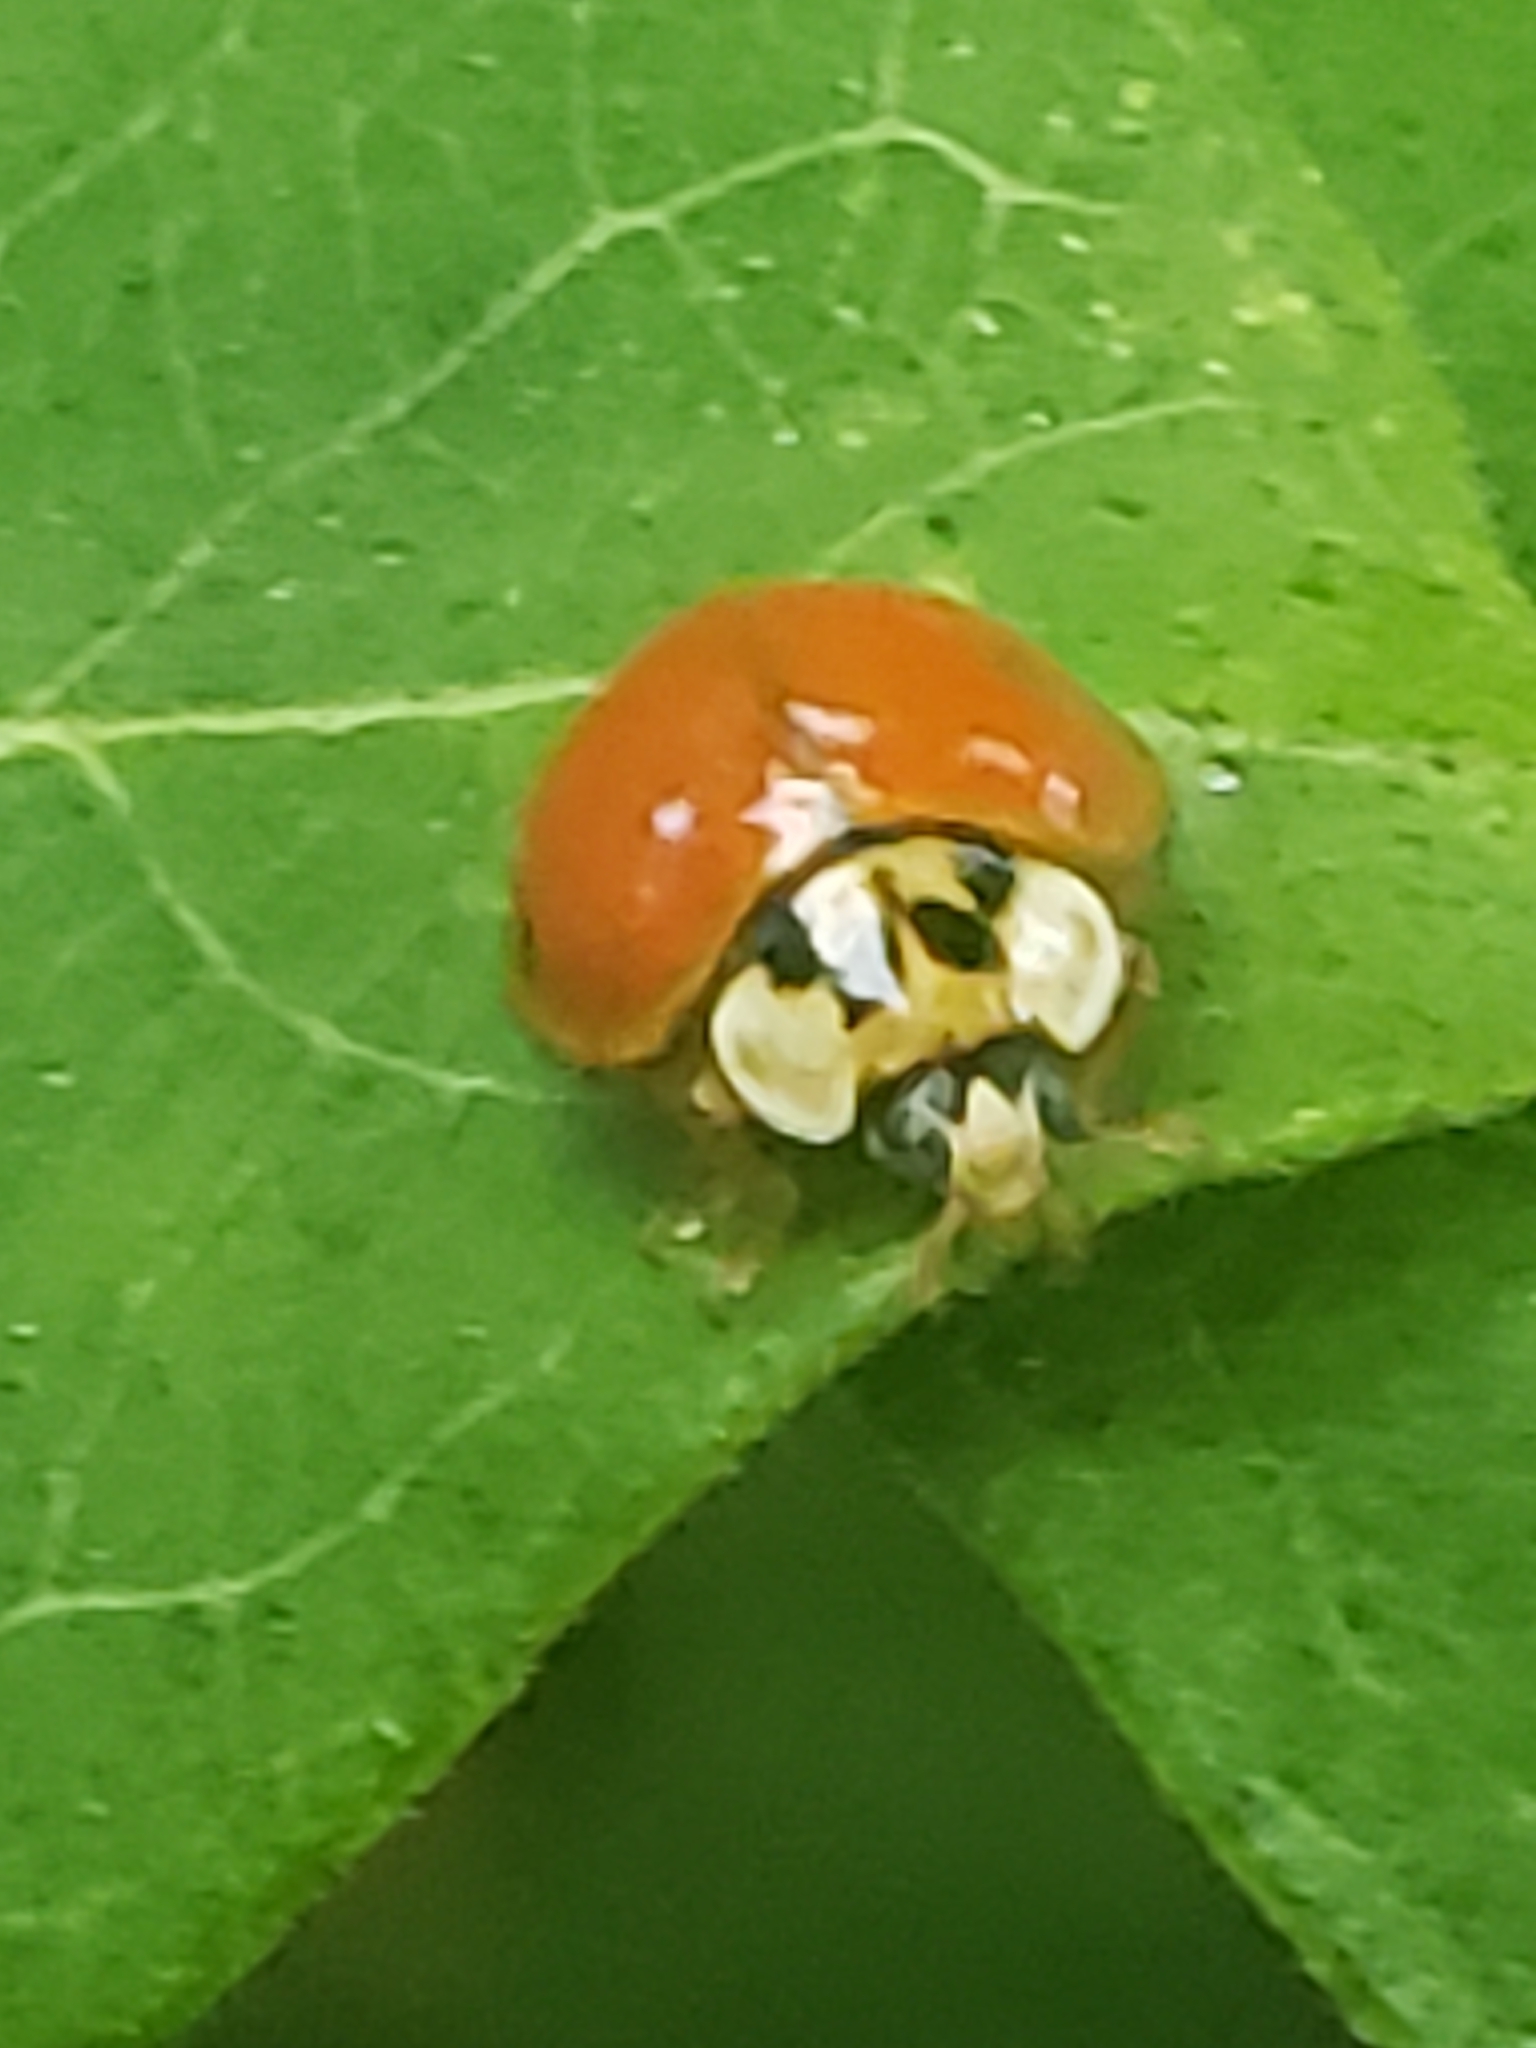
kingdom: Animalia
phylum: Arthropoda
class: Insecta
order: Coleoptera
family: Coccinellidae
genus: Harmonia
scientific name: Harmonia axyridis
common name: Harlequin ladybird
